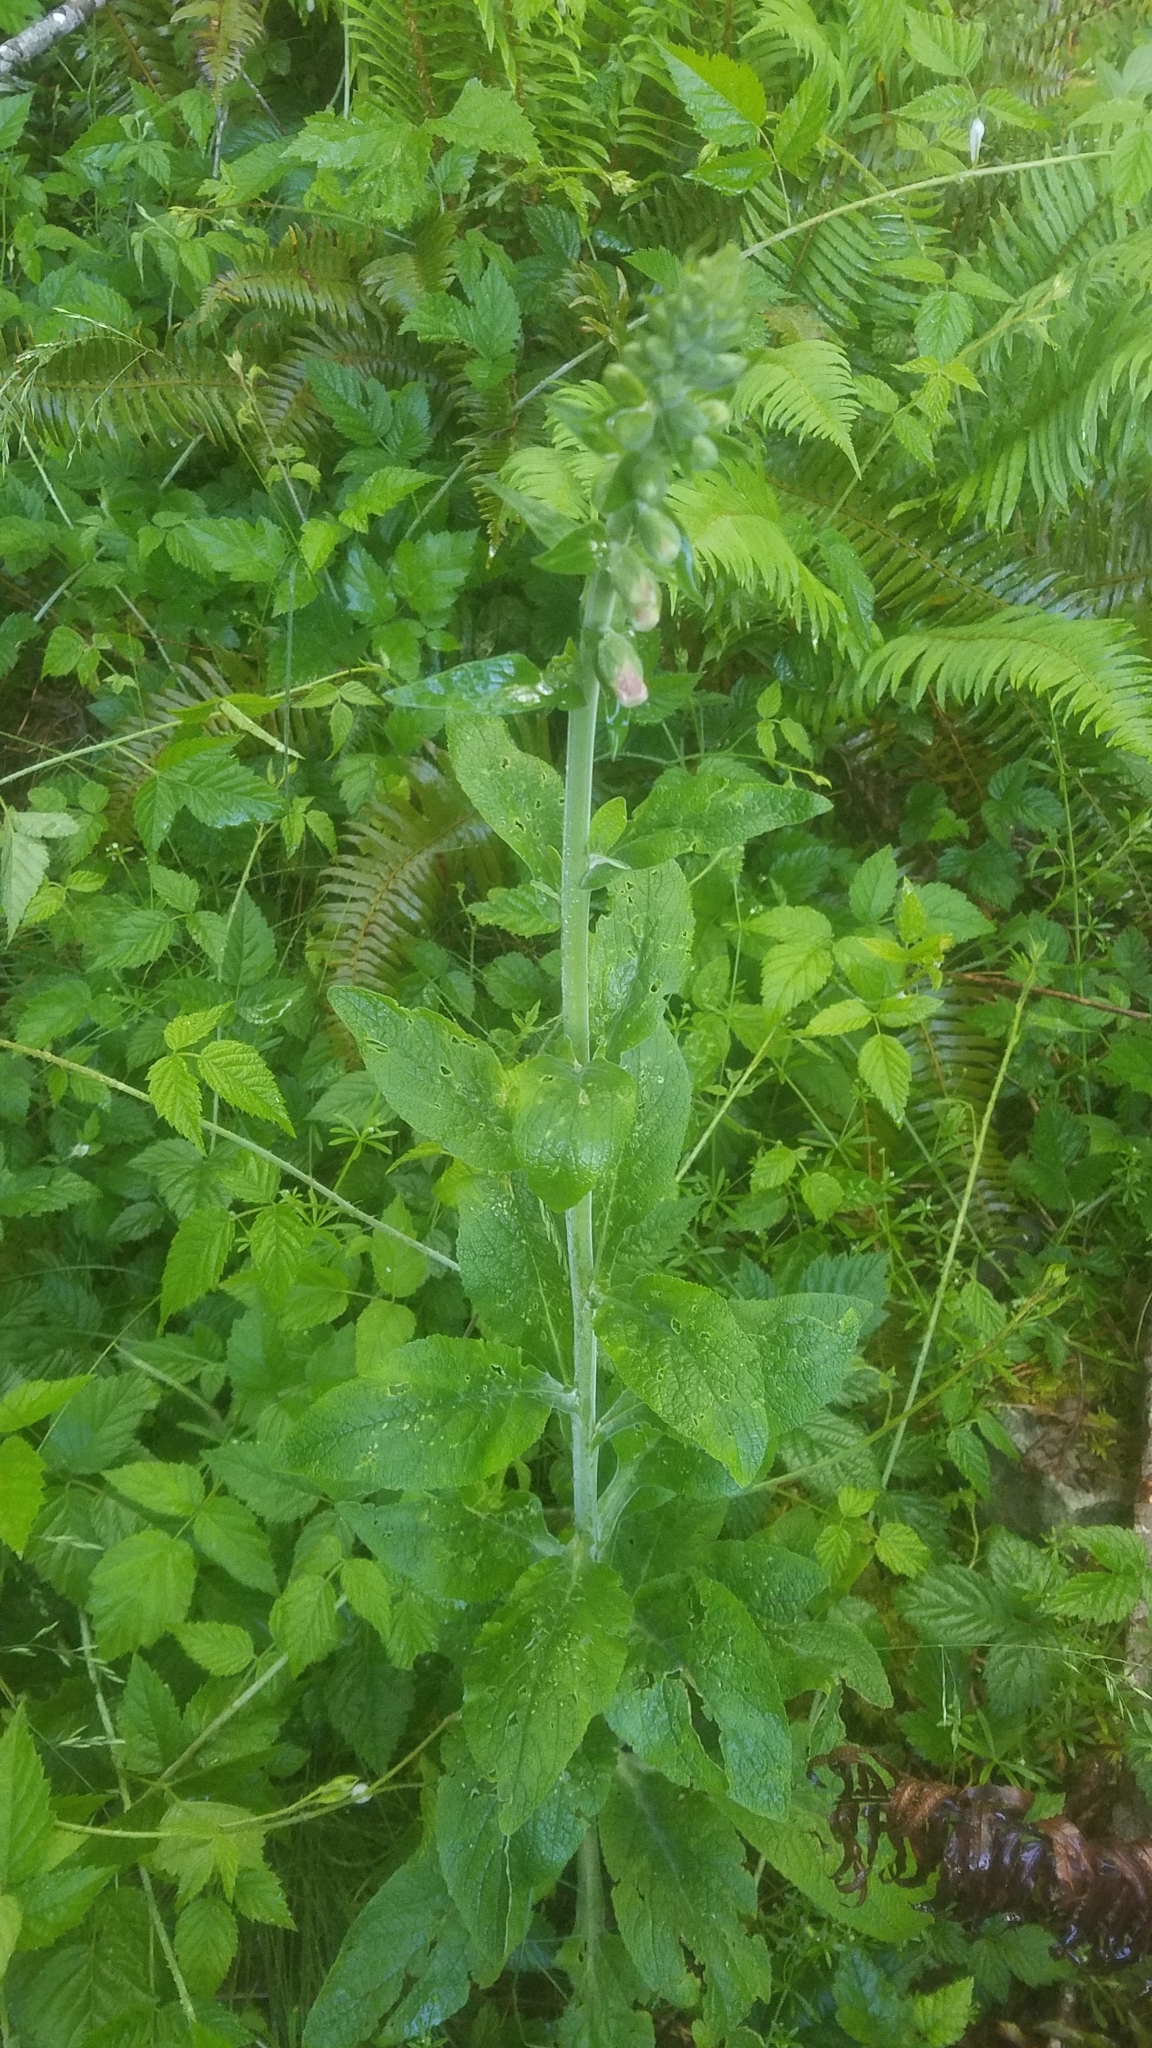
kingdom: Plantae
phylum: Tracheophyta
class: Magnoliopsida
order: Lamiales
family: Plantaginaceae
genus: Digitalis
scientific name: Digitalis purpurea
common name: Foxglove
